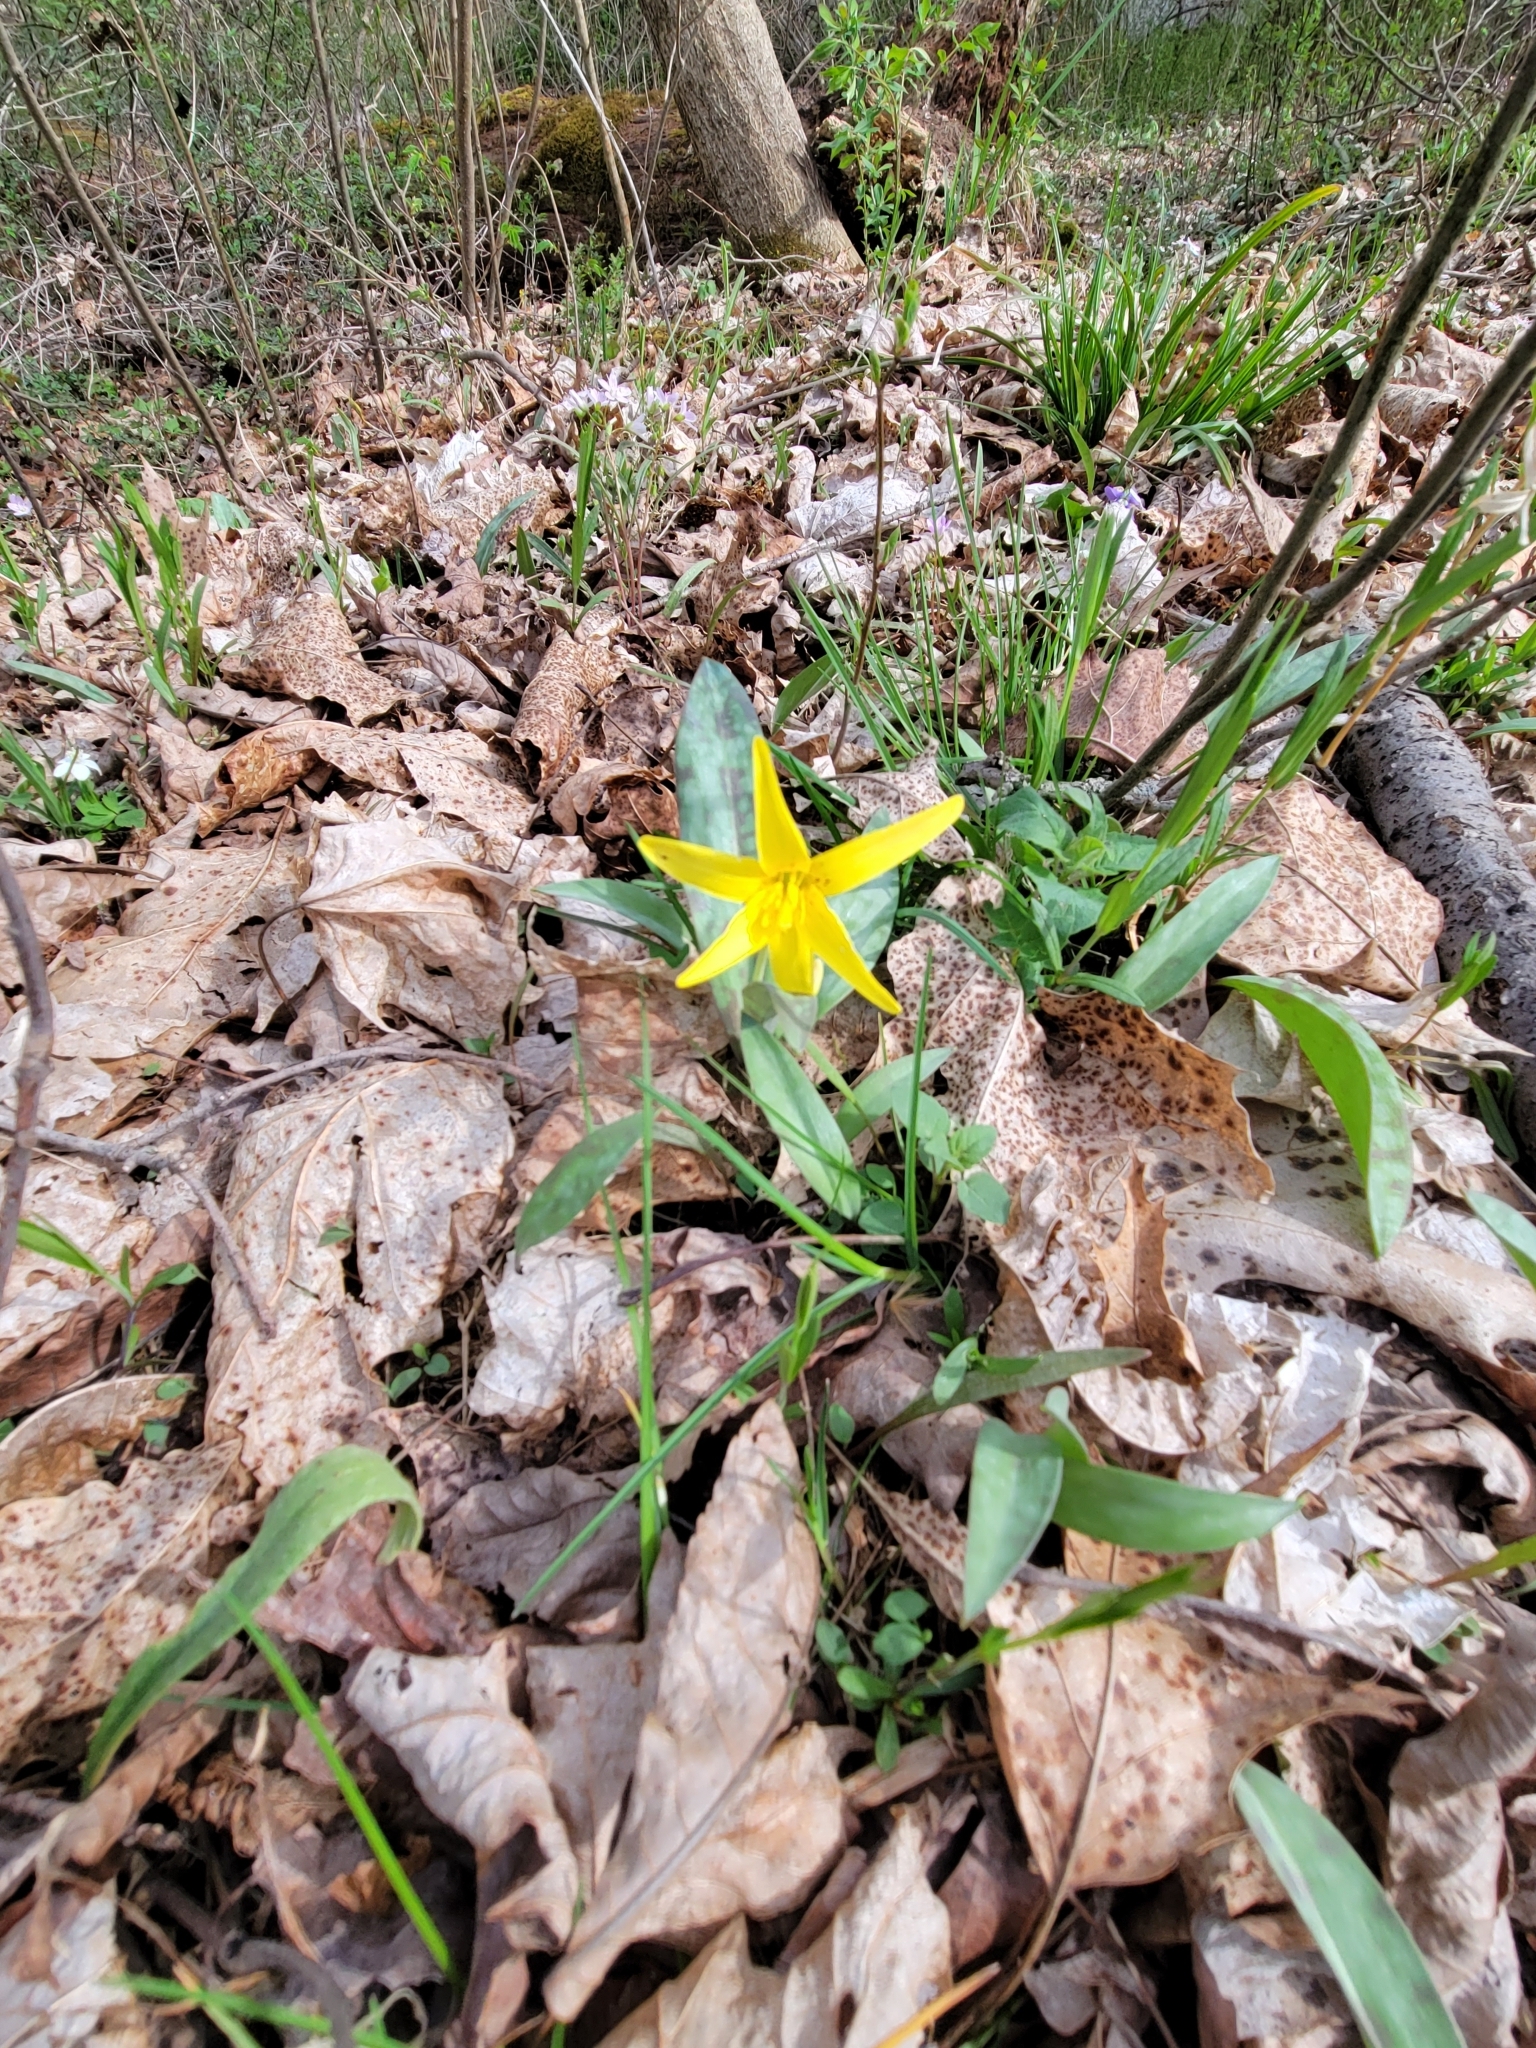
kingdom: Plantae
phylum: Tracheophyta
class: Liliopsida
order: Liliales
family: Liliaceae
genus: Erythronium
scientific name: Erythronium americanum
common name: Yellow adder's-tongue
